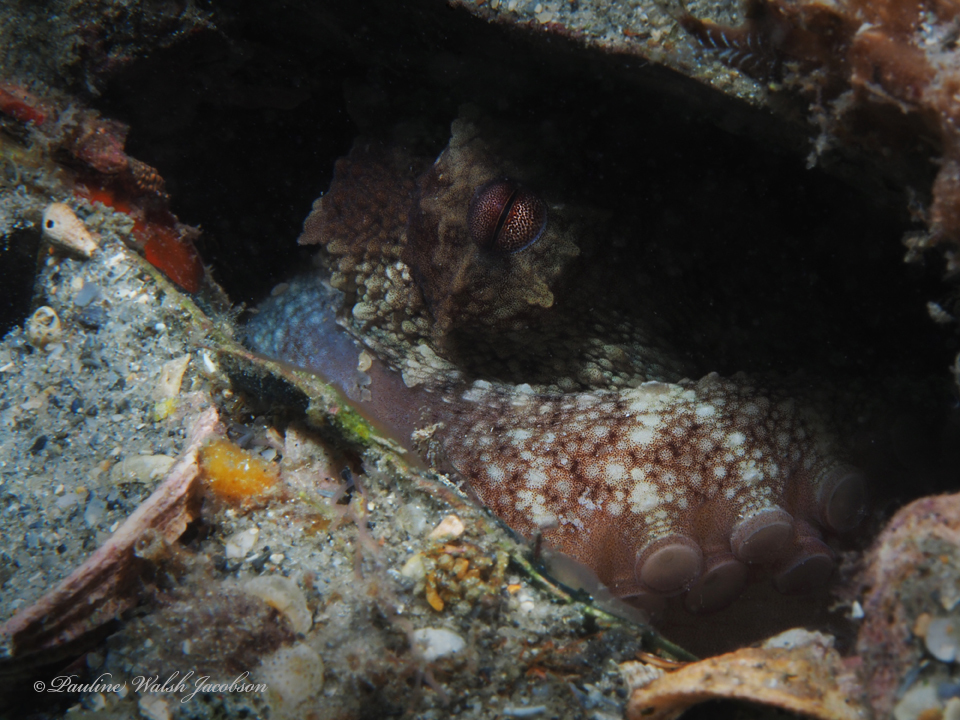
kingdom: Animalia
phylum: Mollusca
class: Cephalopoda
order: Octopoda
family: Octopodidae
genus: Octopus
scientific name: Octopus americanus
